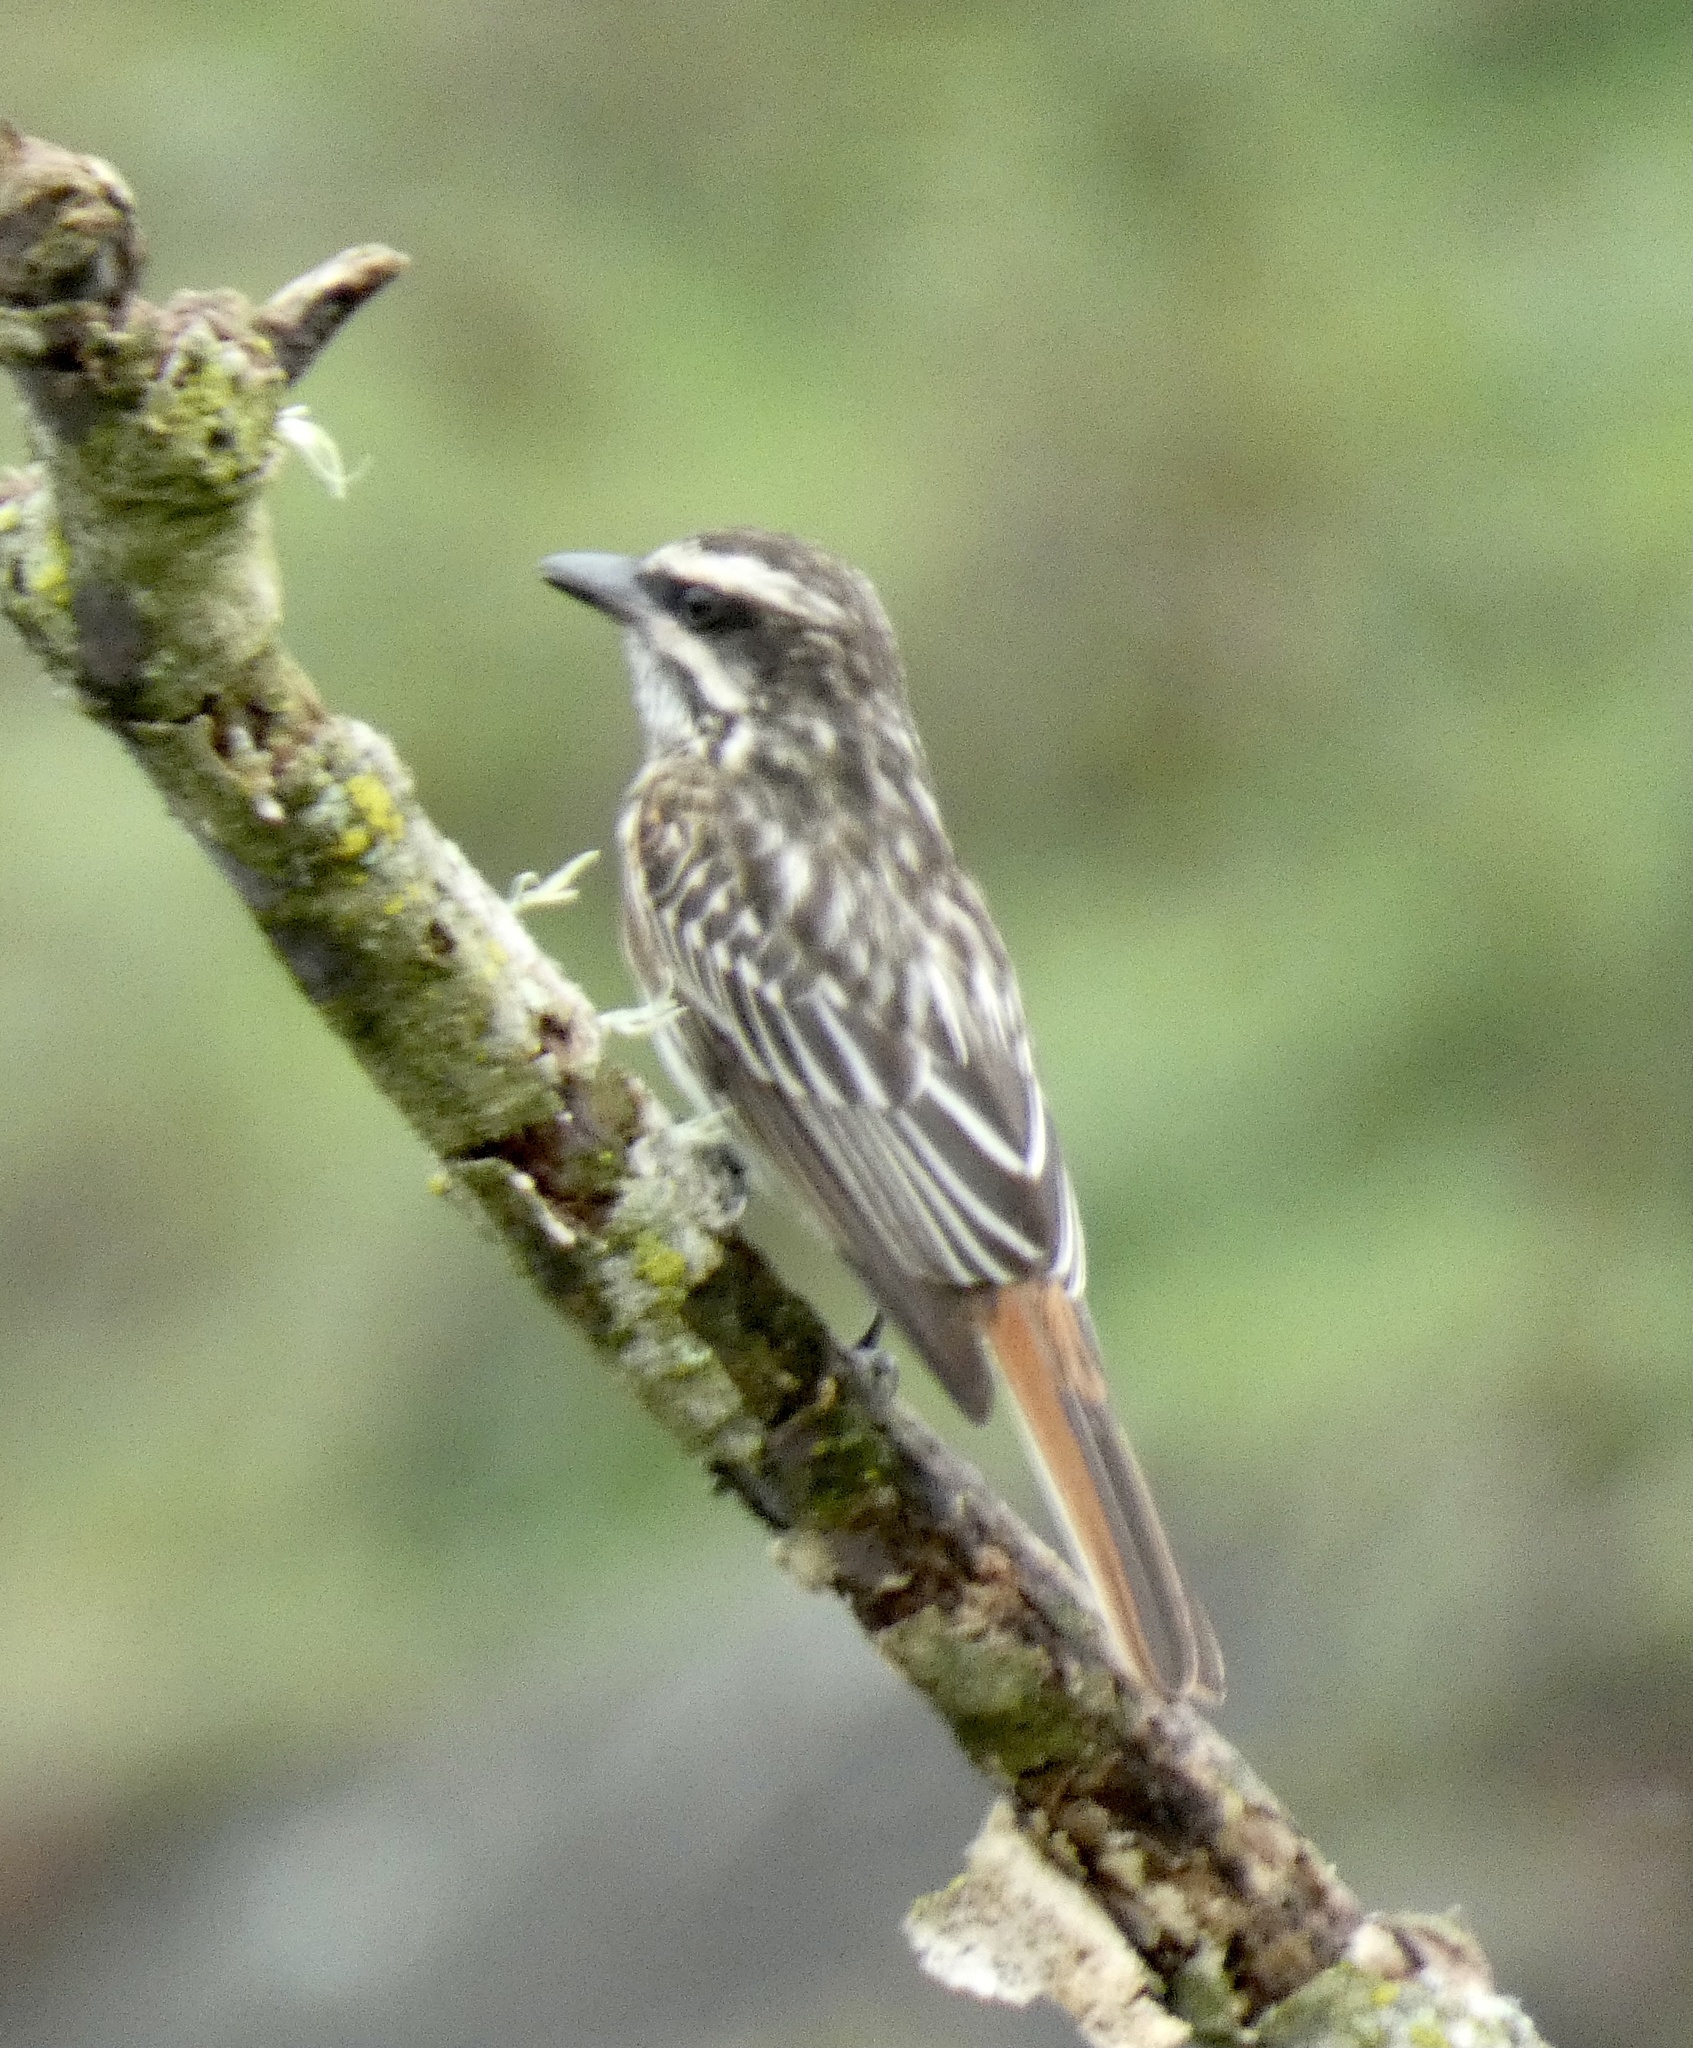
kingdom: Animalia
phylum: Chordata
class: Aves
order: Passeriformes
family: Tyrannidae
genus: Myiodynastes
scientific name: Myiodynastes maculatus
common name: Streaked flycatcher
